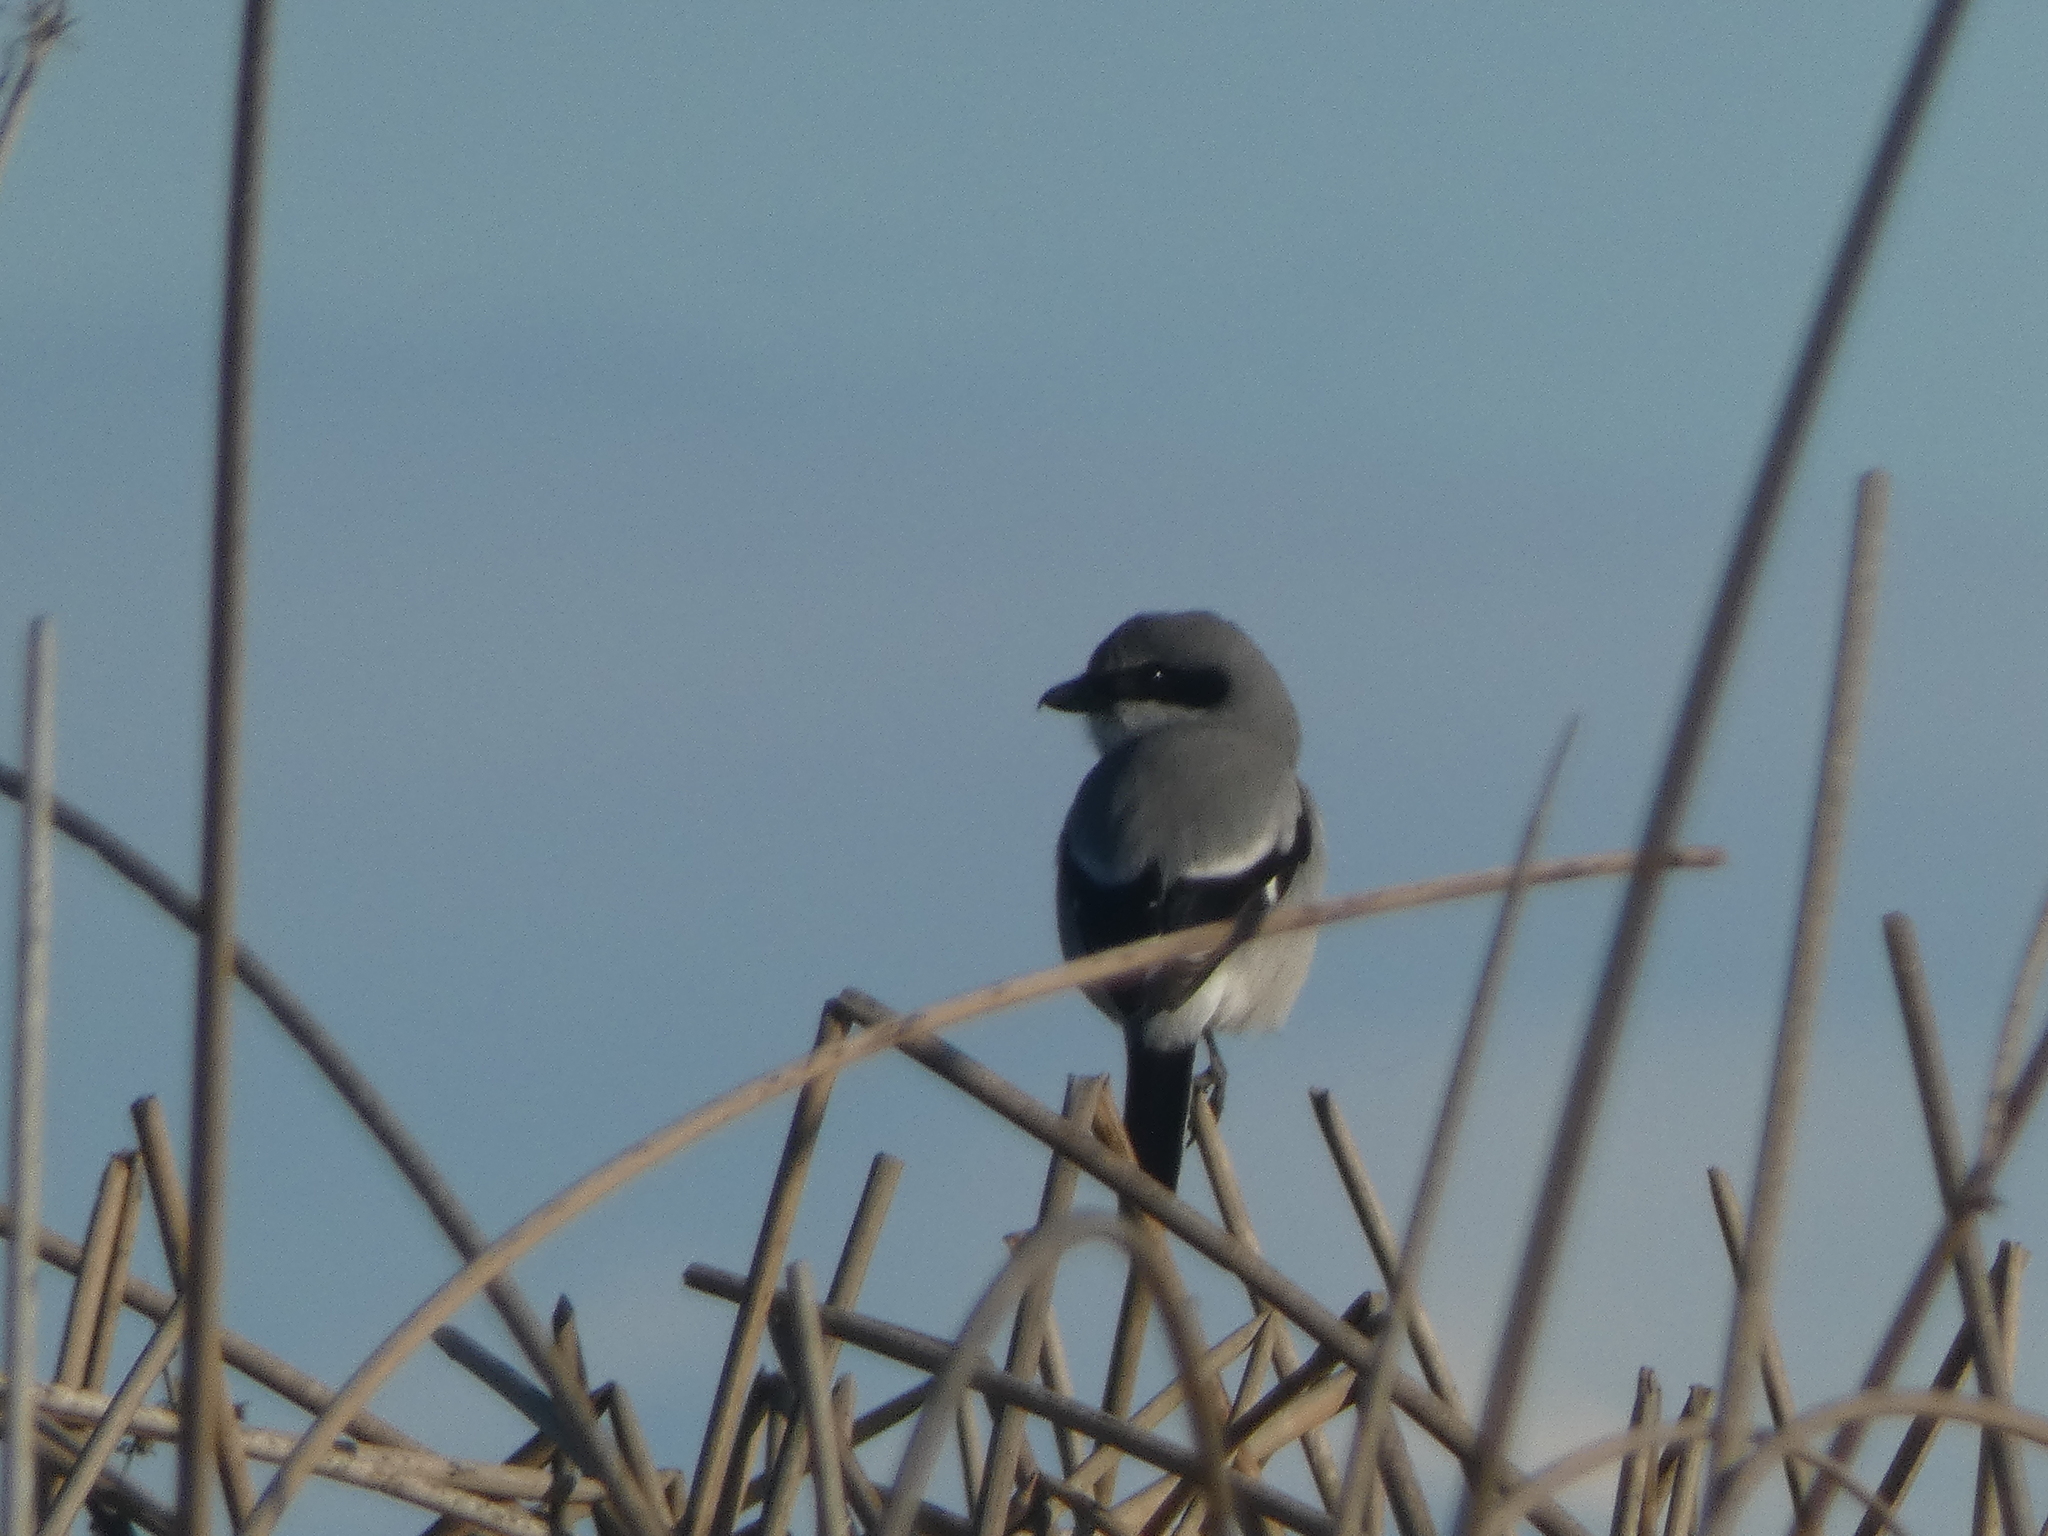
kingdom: Animalia
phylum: Chordata
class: Aves
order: Passeriformes
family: Laniidae
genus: Lanius
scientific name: Lanius ludovicianus
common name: Loggerhead shrike
